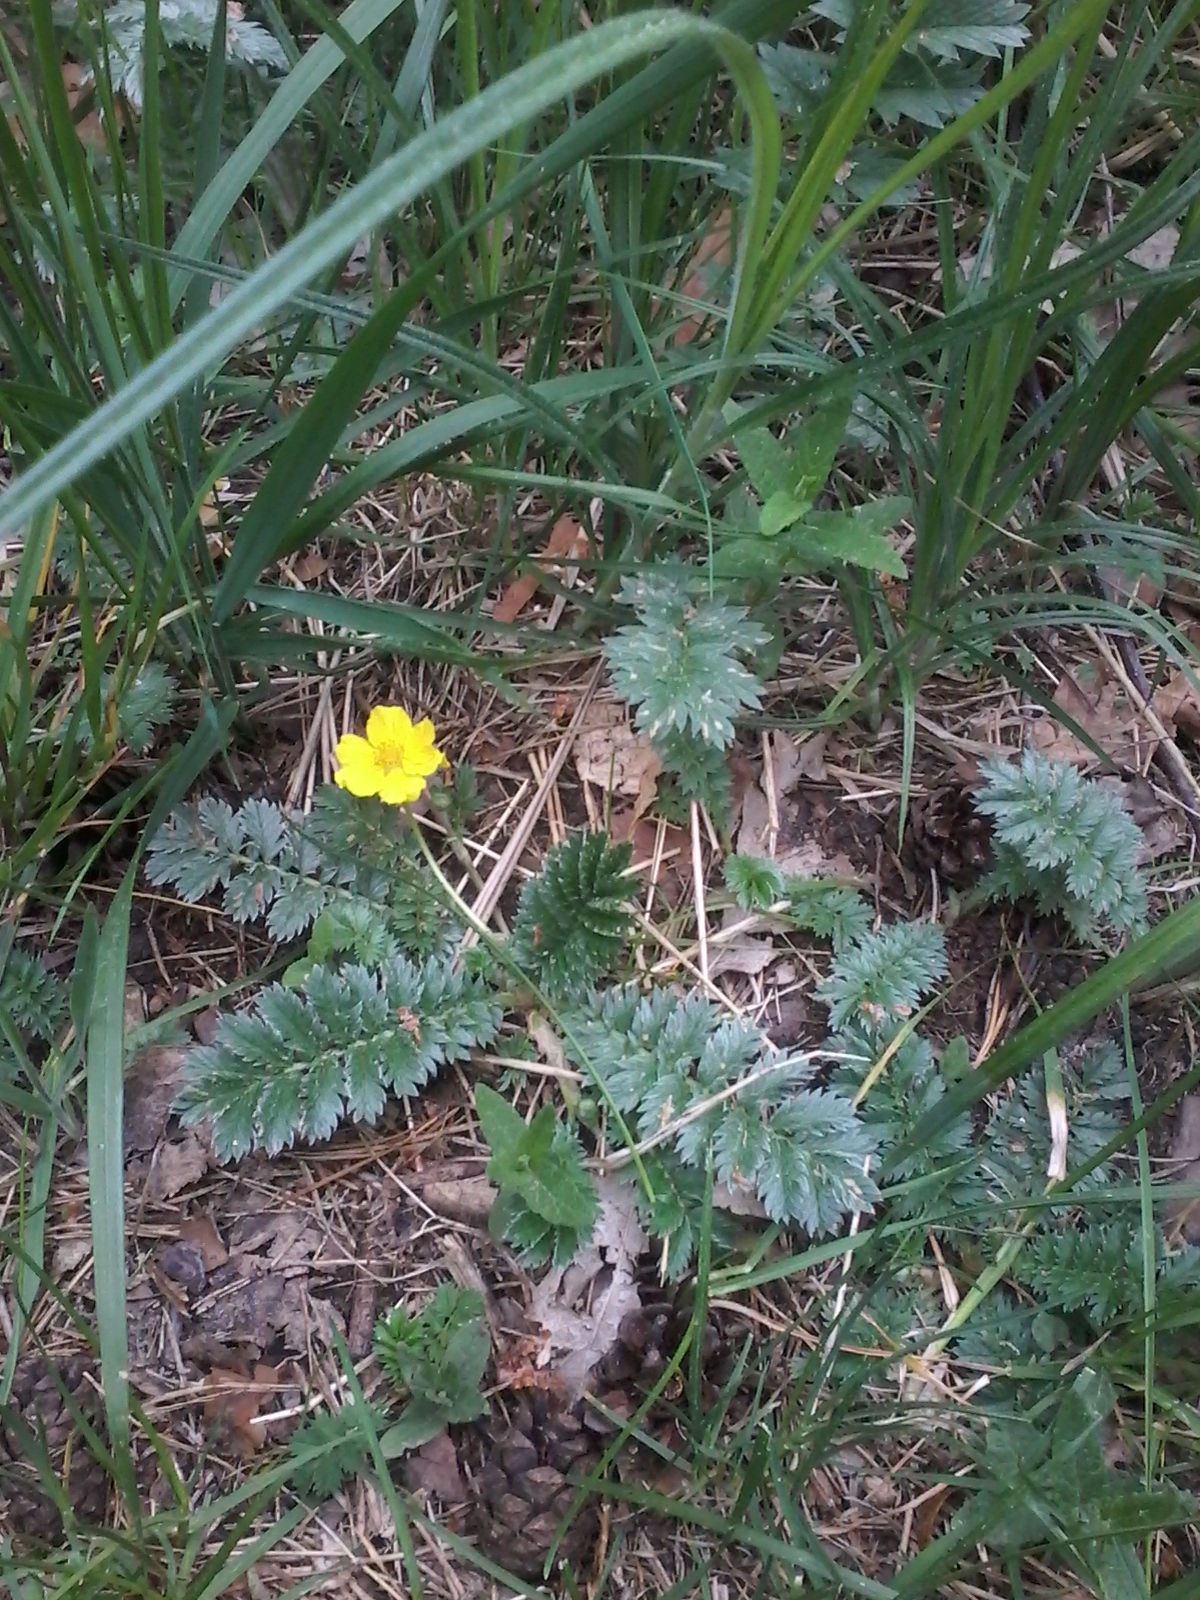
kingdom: Plantae
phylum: Tracheophyta
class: Magnoliopsida
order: Rosales
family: Rosaceae
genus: Argentina
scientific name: Argentina anserina
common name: Common silverweed
